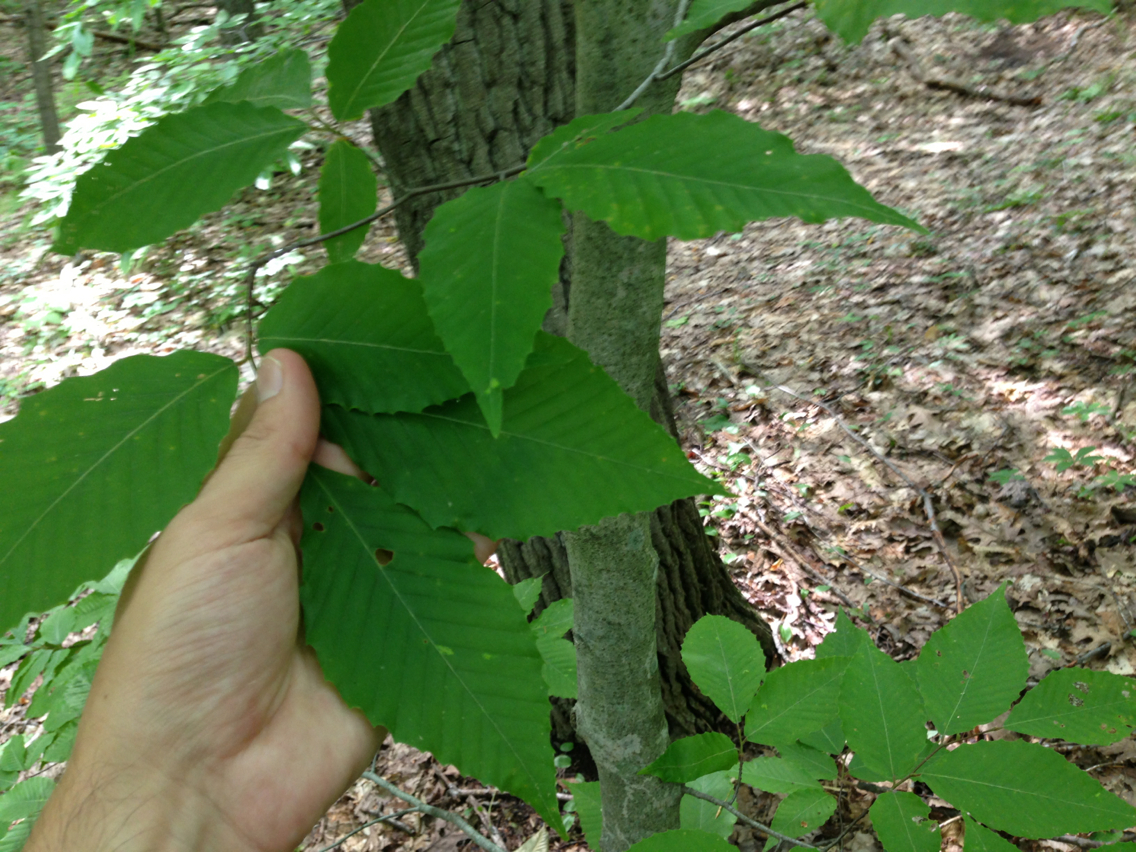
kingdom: Plantae
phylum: Tracheophyta
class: Magnoliopsida
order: Fagales
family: Fagaceae
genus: Fagus
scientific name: Fagus grandifolia
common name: American beech
